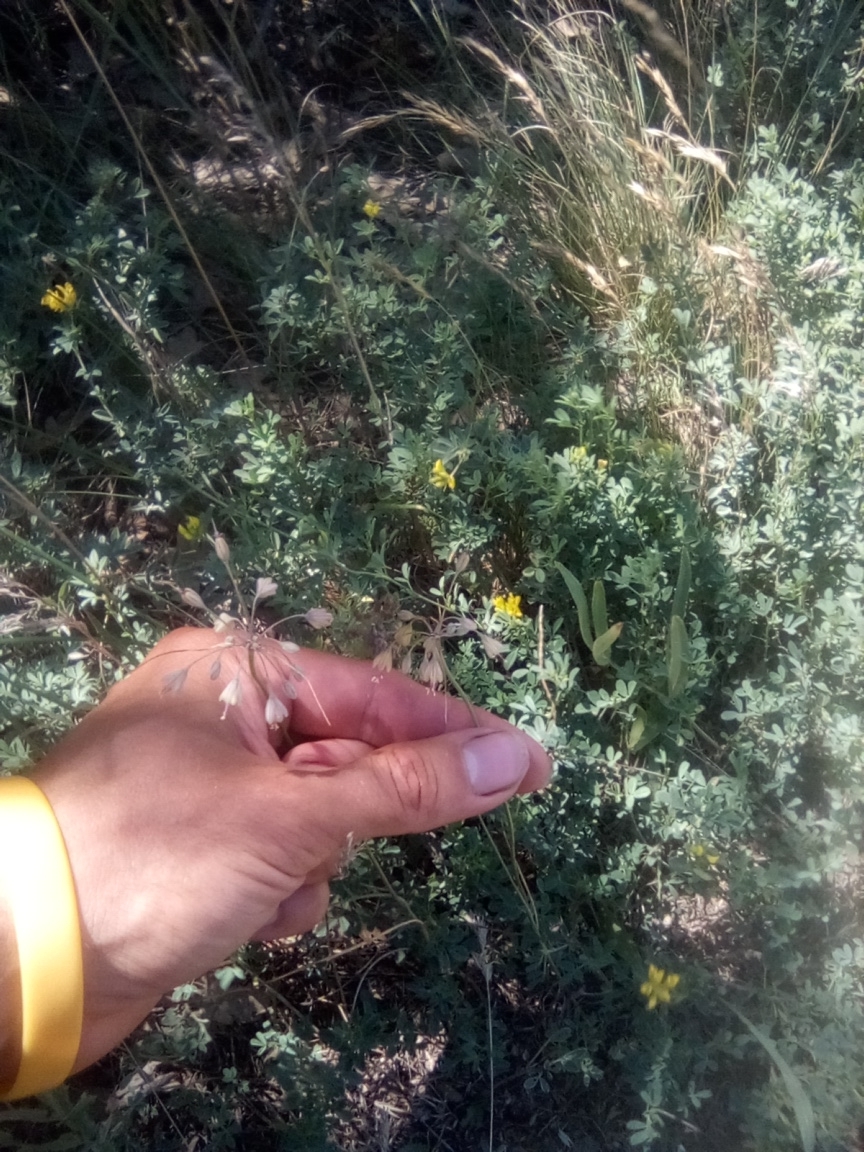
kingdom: Plantae
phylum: Tracheophyta
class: Liliopsida
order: Asparagales
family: Amaryllidaceae
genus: Allium
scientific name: Allium flavum
